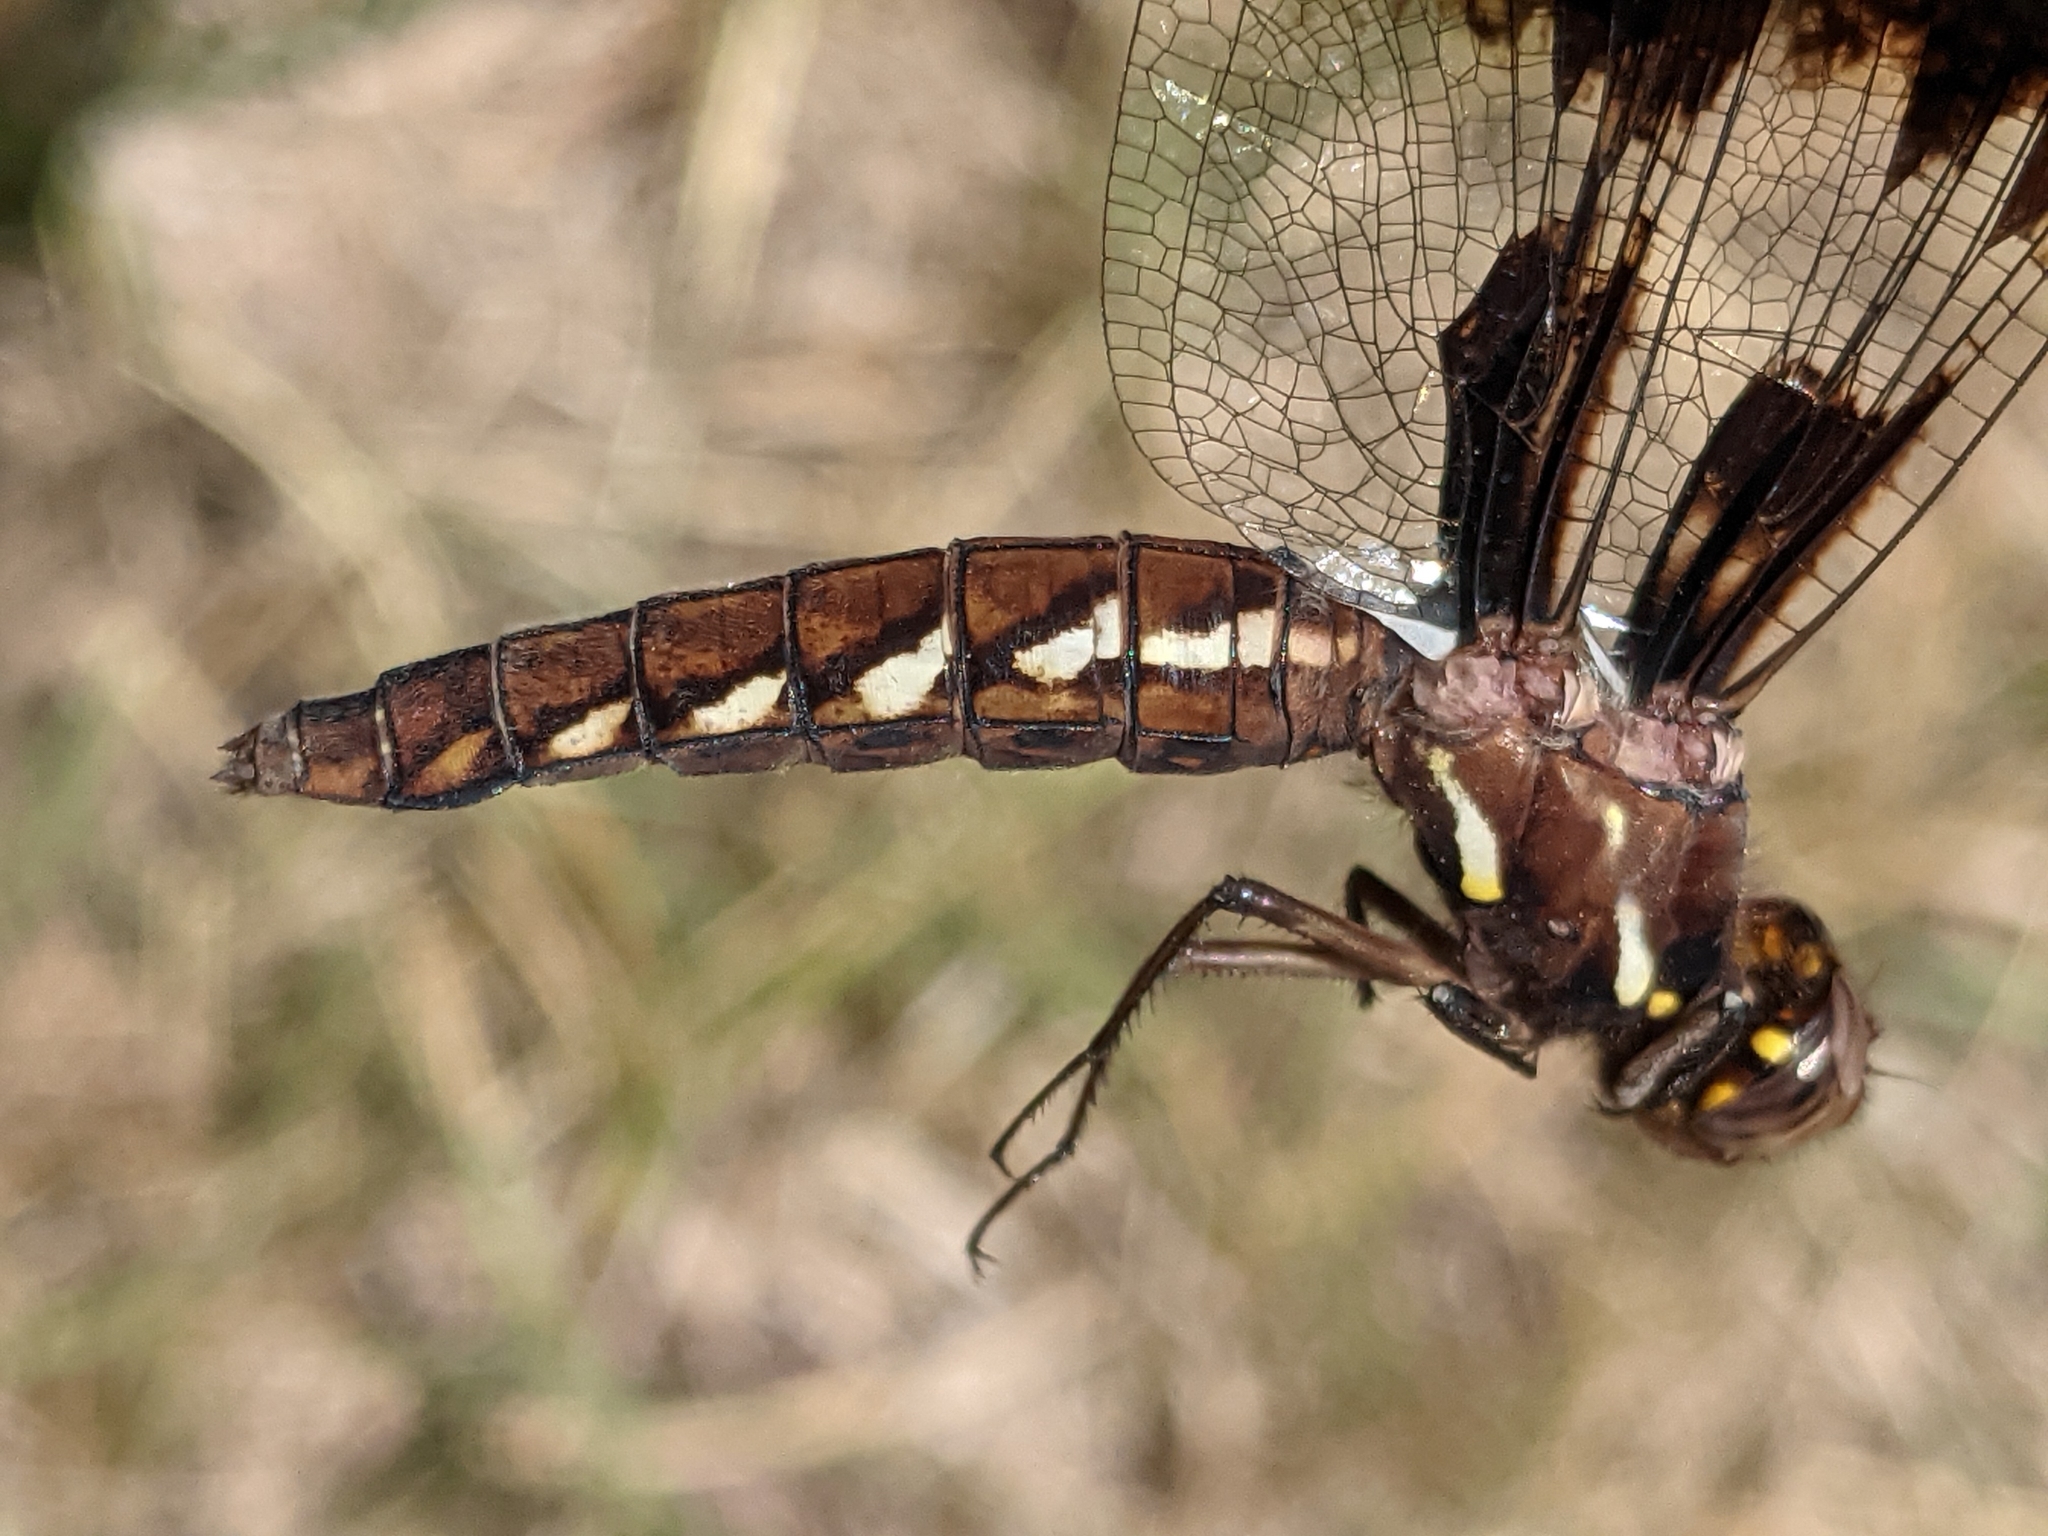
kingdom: Animalia
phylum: Arthropoda
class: Insecta
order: Odonata
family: Libellulidae
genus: Plathemis
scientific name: Plathemis lydia
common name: Common whitetail
